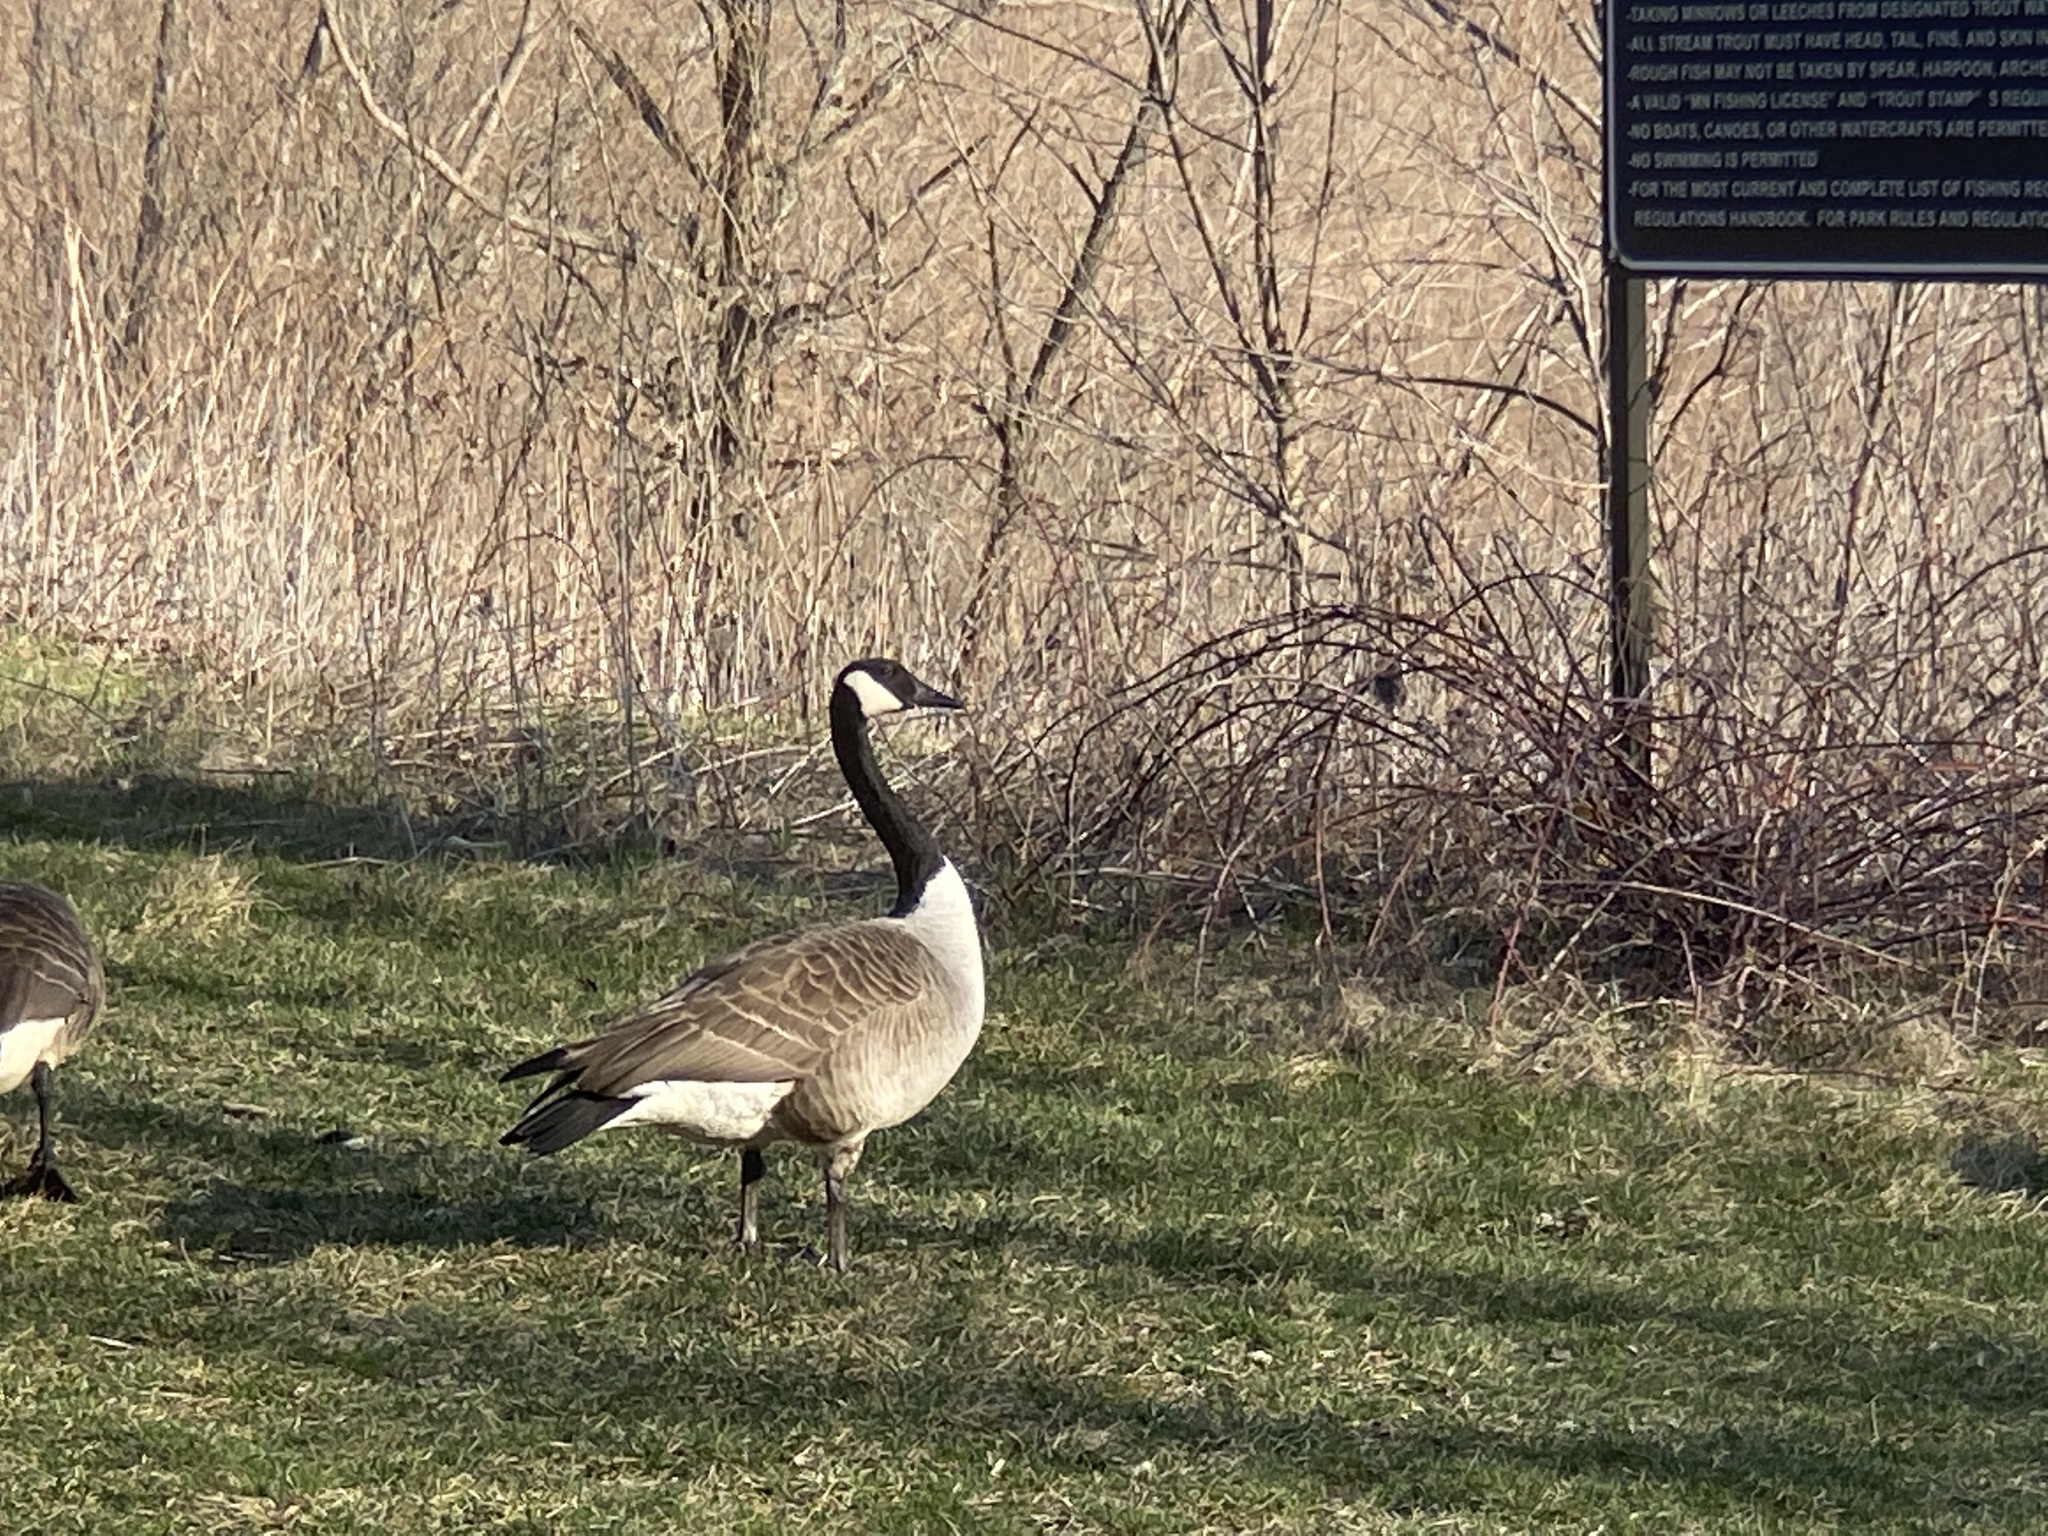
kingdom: Animalia
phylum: Chordata
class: Aves
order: Anseriformes
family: Anatidae
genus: Branta
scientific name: Branta canadensis
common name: Canada goose
